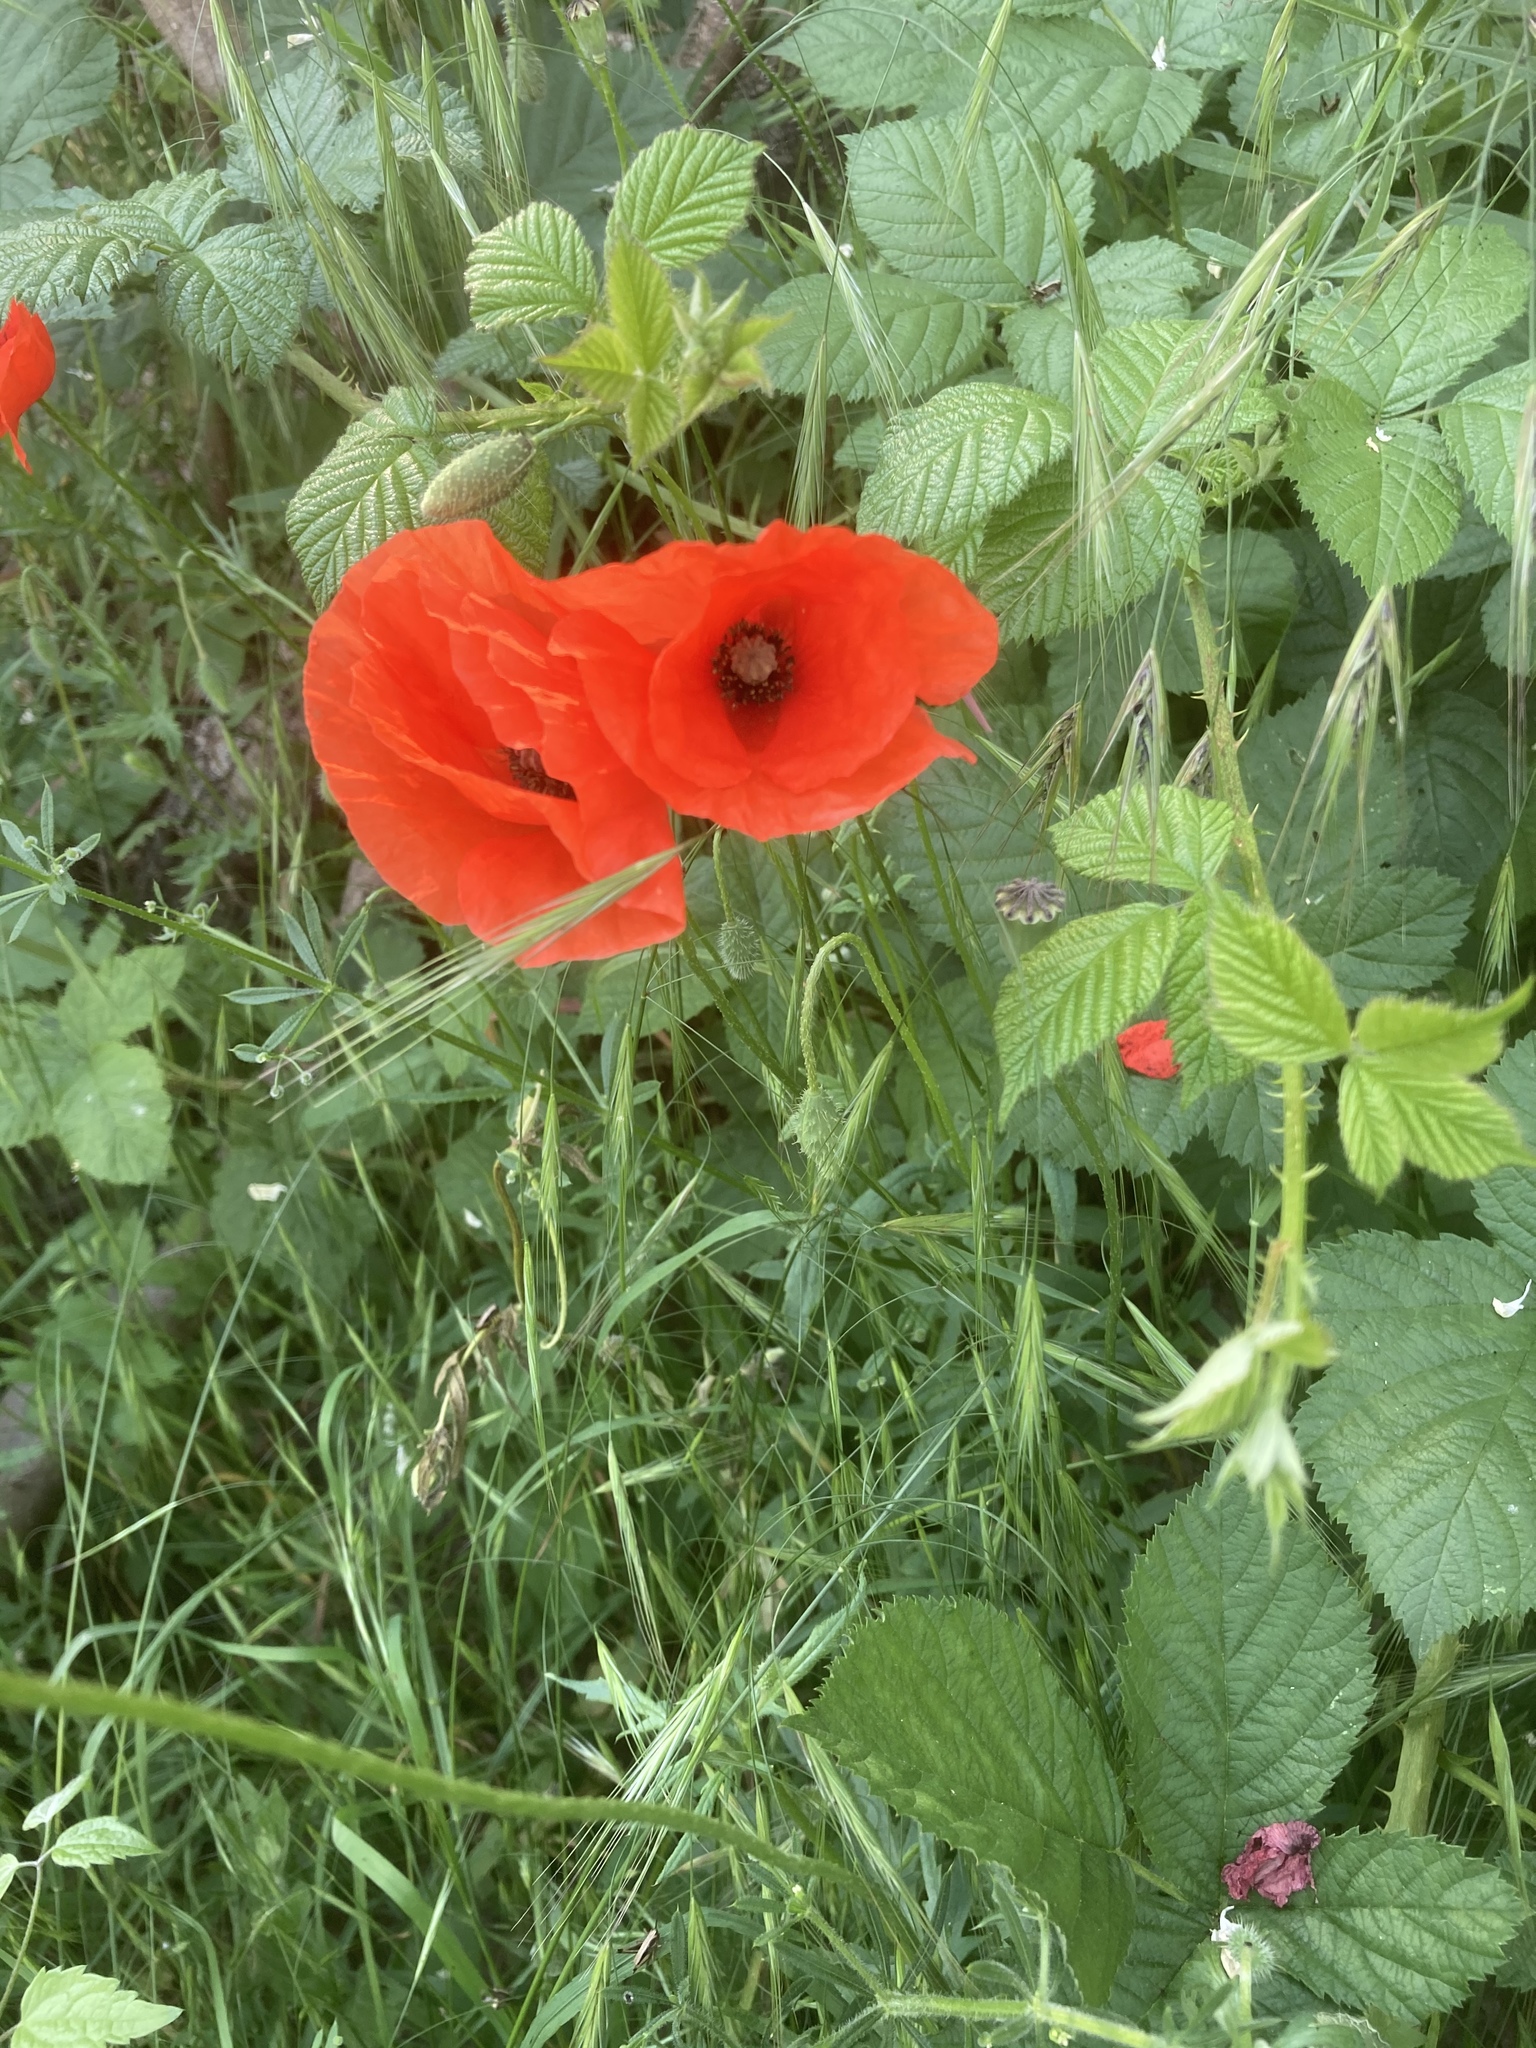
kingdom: Plantae
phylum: Tracheophyta
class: Magnoliopsida
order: Ranunculales
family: Papaveraceae
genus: Papaver
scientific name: Papaver rhoeas
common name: Corn poppy
